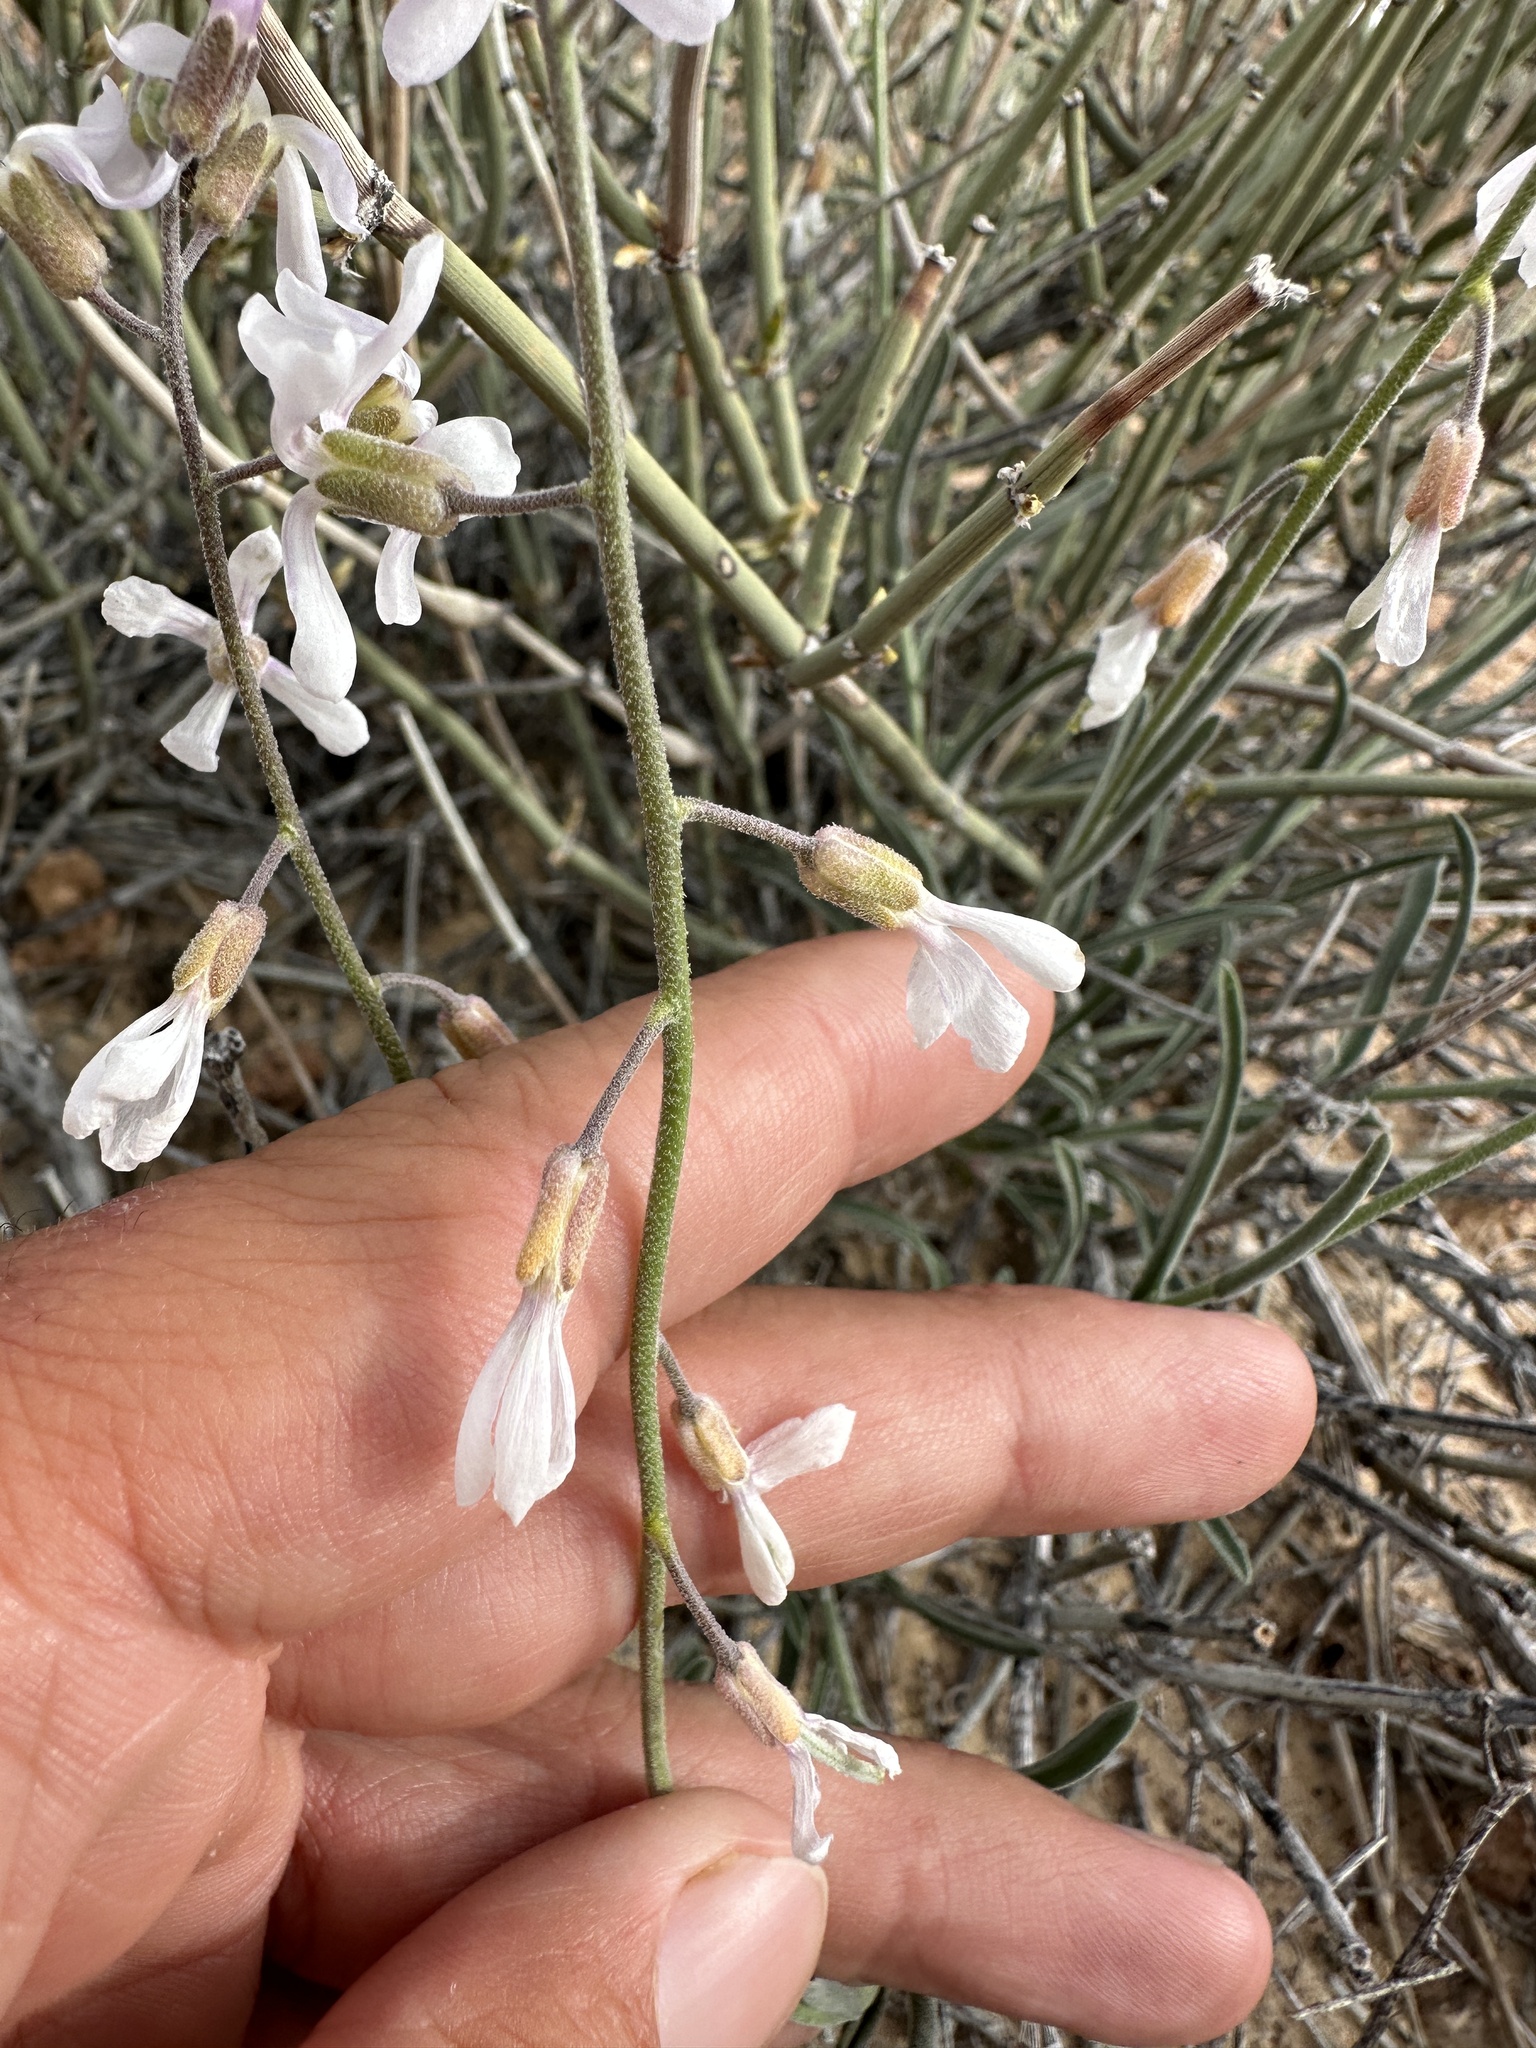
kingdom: Plantae
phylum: Tracheophyta
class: Magnoliopsida
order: Brassicales
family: Brassicaceae
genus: Boechera
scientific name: Boechera formosa
